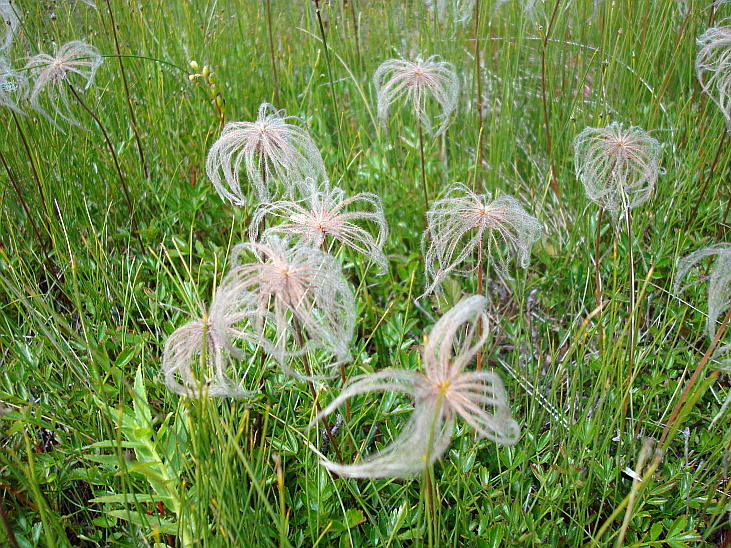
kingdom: Plantae
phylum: Tracheophyta
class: Magnoliopsida
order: Rosales
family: Rosaceae
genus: Geum
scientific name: Geum pentapetalum
